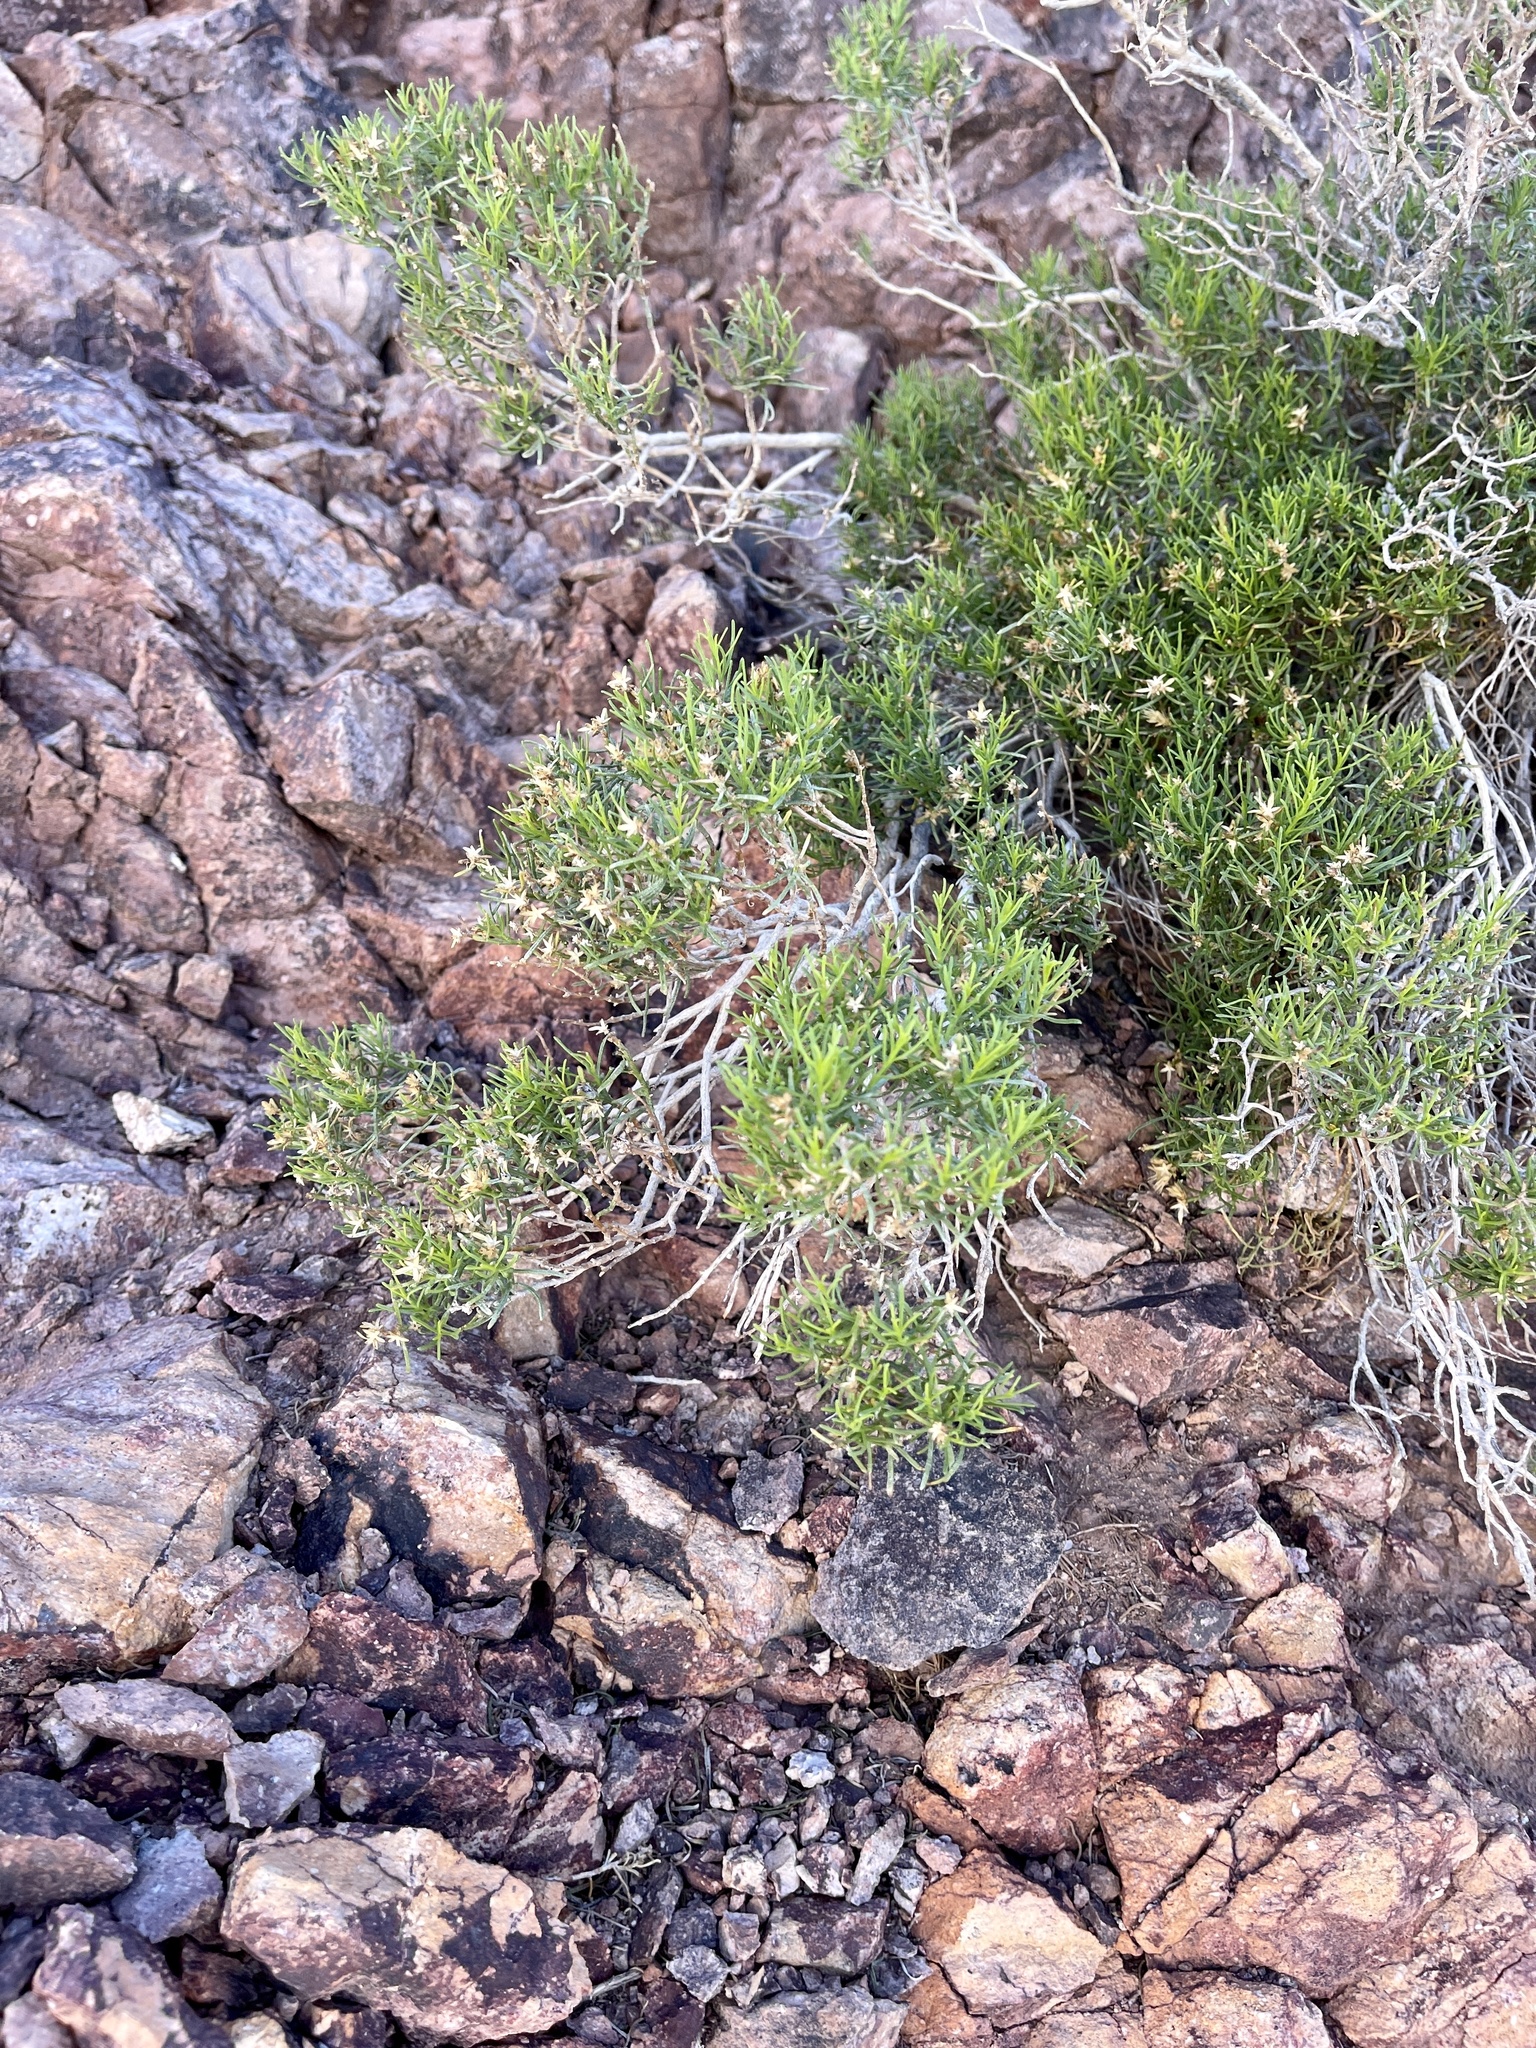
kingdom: Plantae
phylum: Tracheophyta
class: Magnoliopsida
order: Asterales
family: Asteraceae
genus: Peucephyllum
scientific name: Peucephyllum schottii
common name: Pygmy-cedar
